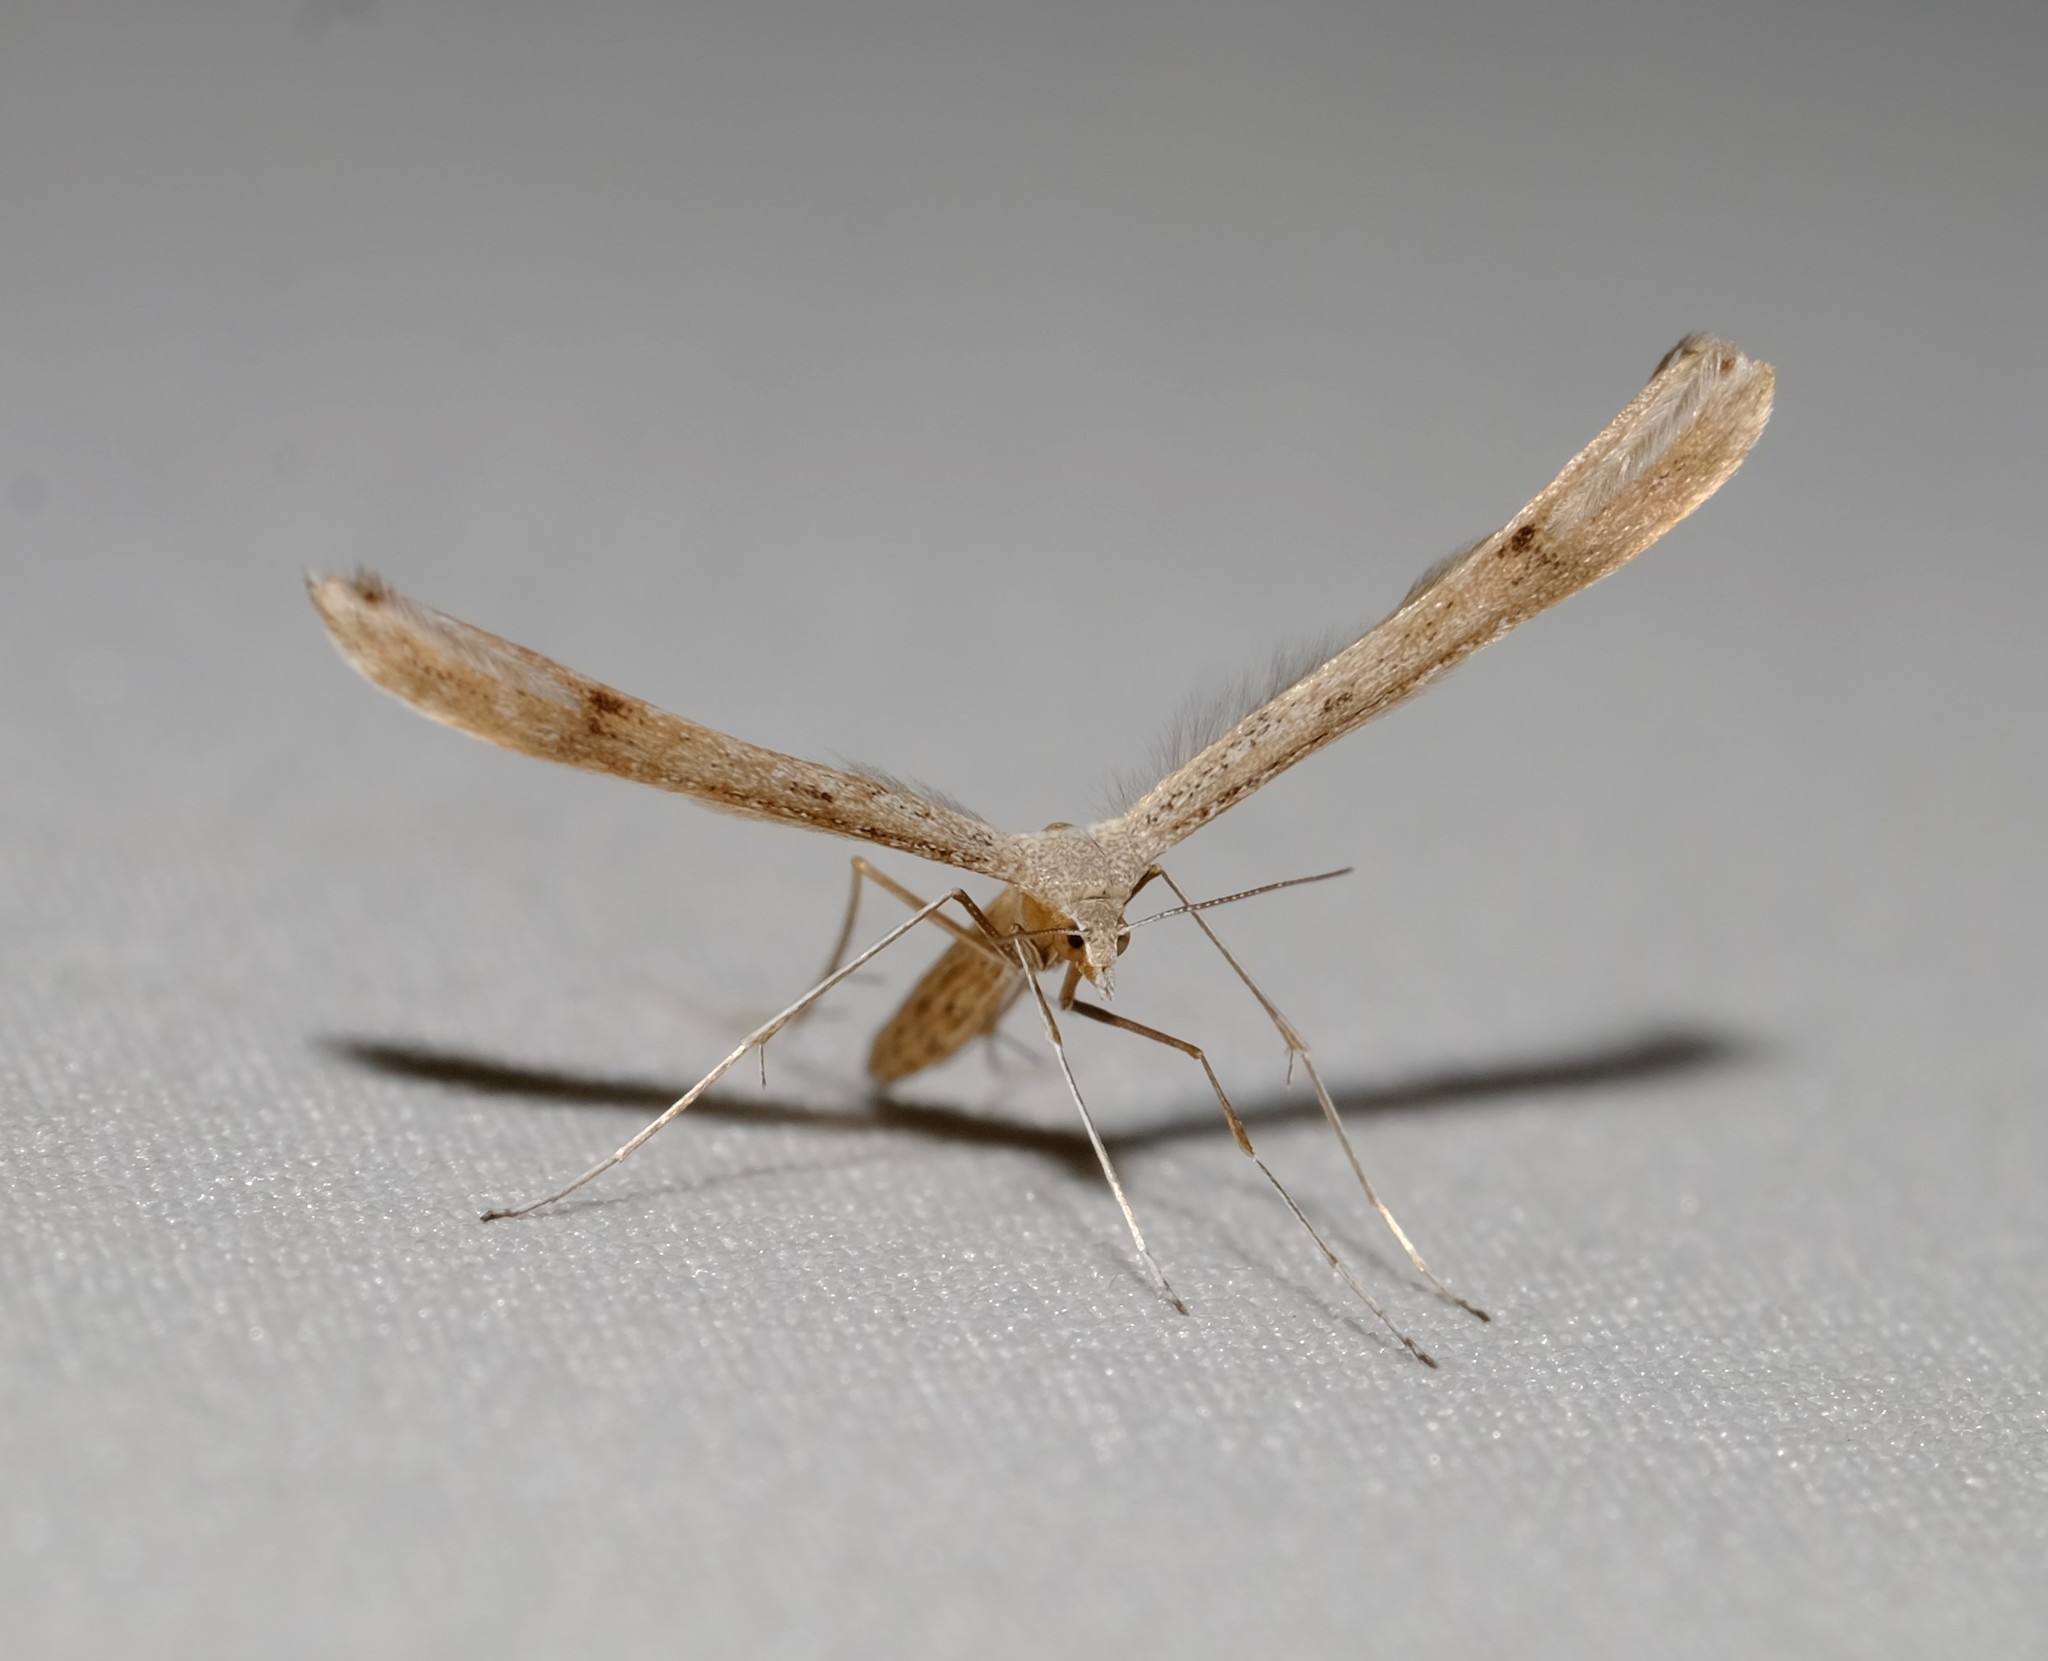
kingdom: Animalia
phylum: Arthropoda
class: Insecta
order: Lepidoptera
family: Pterophoridae
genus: Stenoptilia
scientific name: Stenoptilia zophodactylus
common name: Dowdy plume
